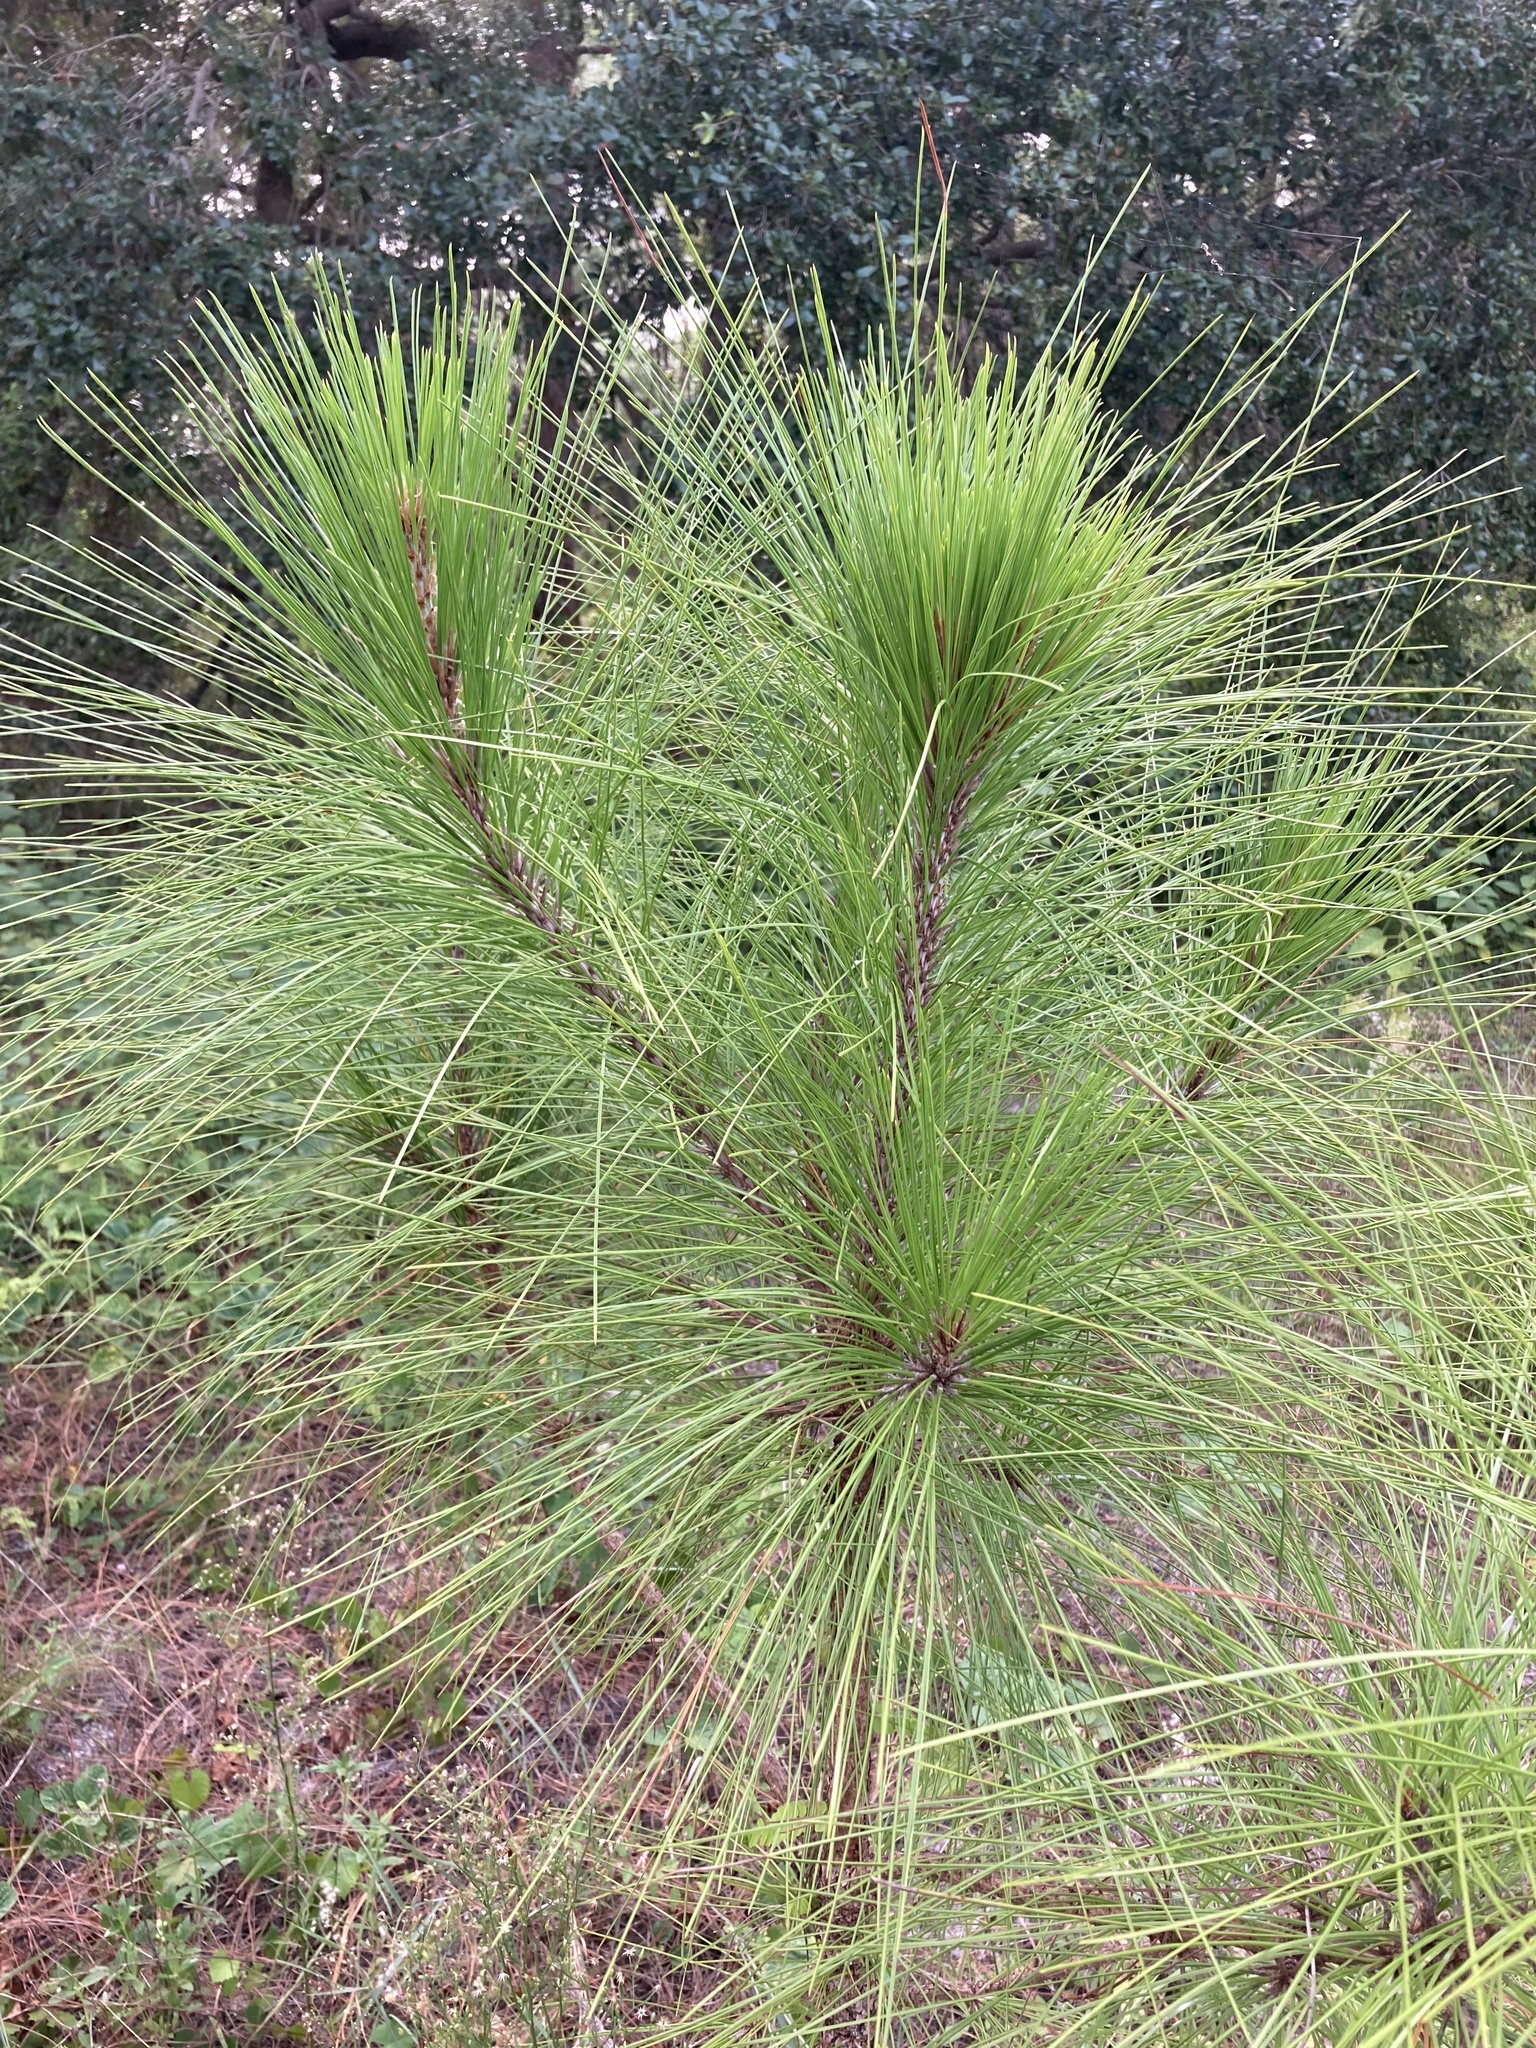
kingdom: Plantae
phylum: Tracheophyta
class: Pinopsida
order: Pinales
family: Pinaceae
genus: Pinus
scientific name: Pinus elliottii
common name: Slash pine
